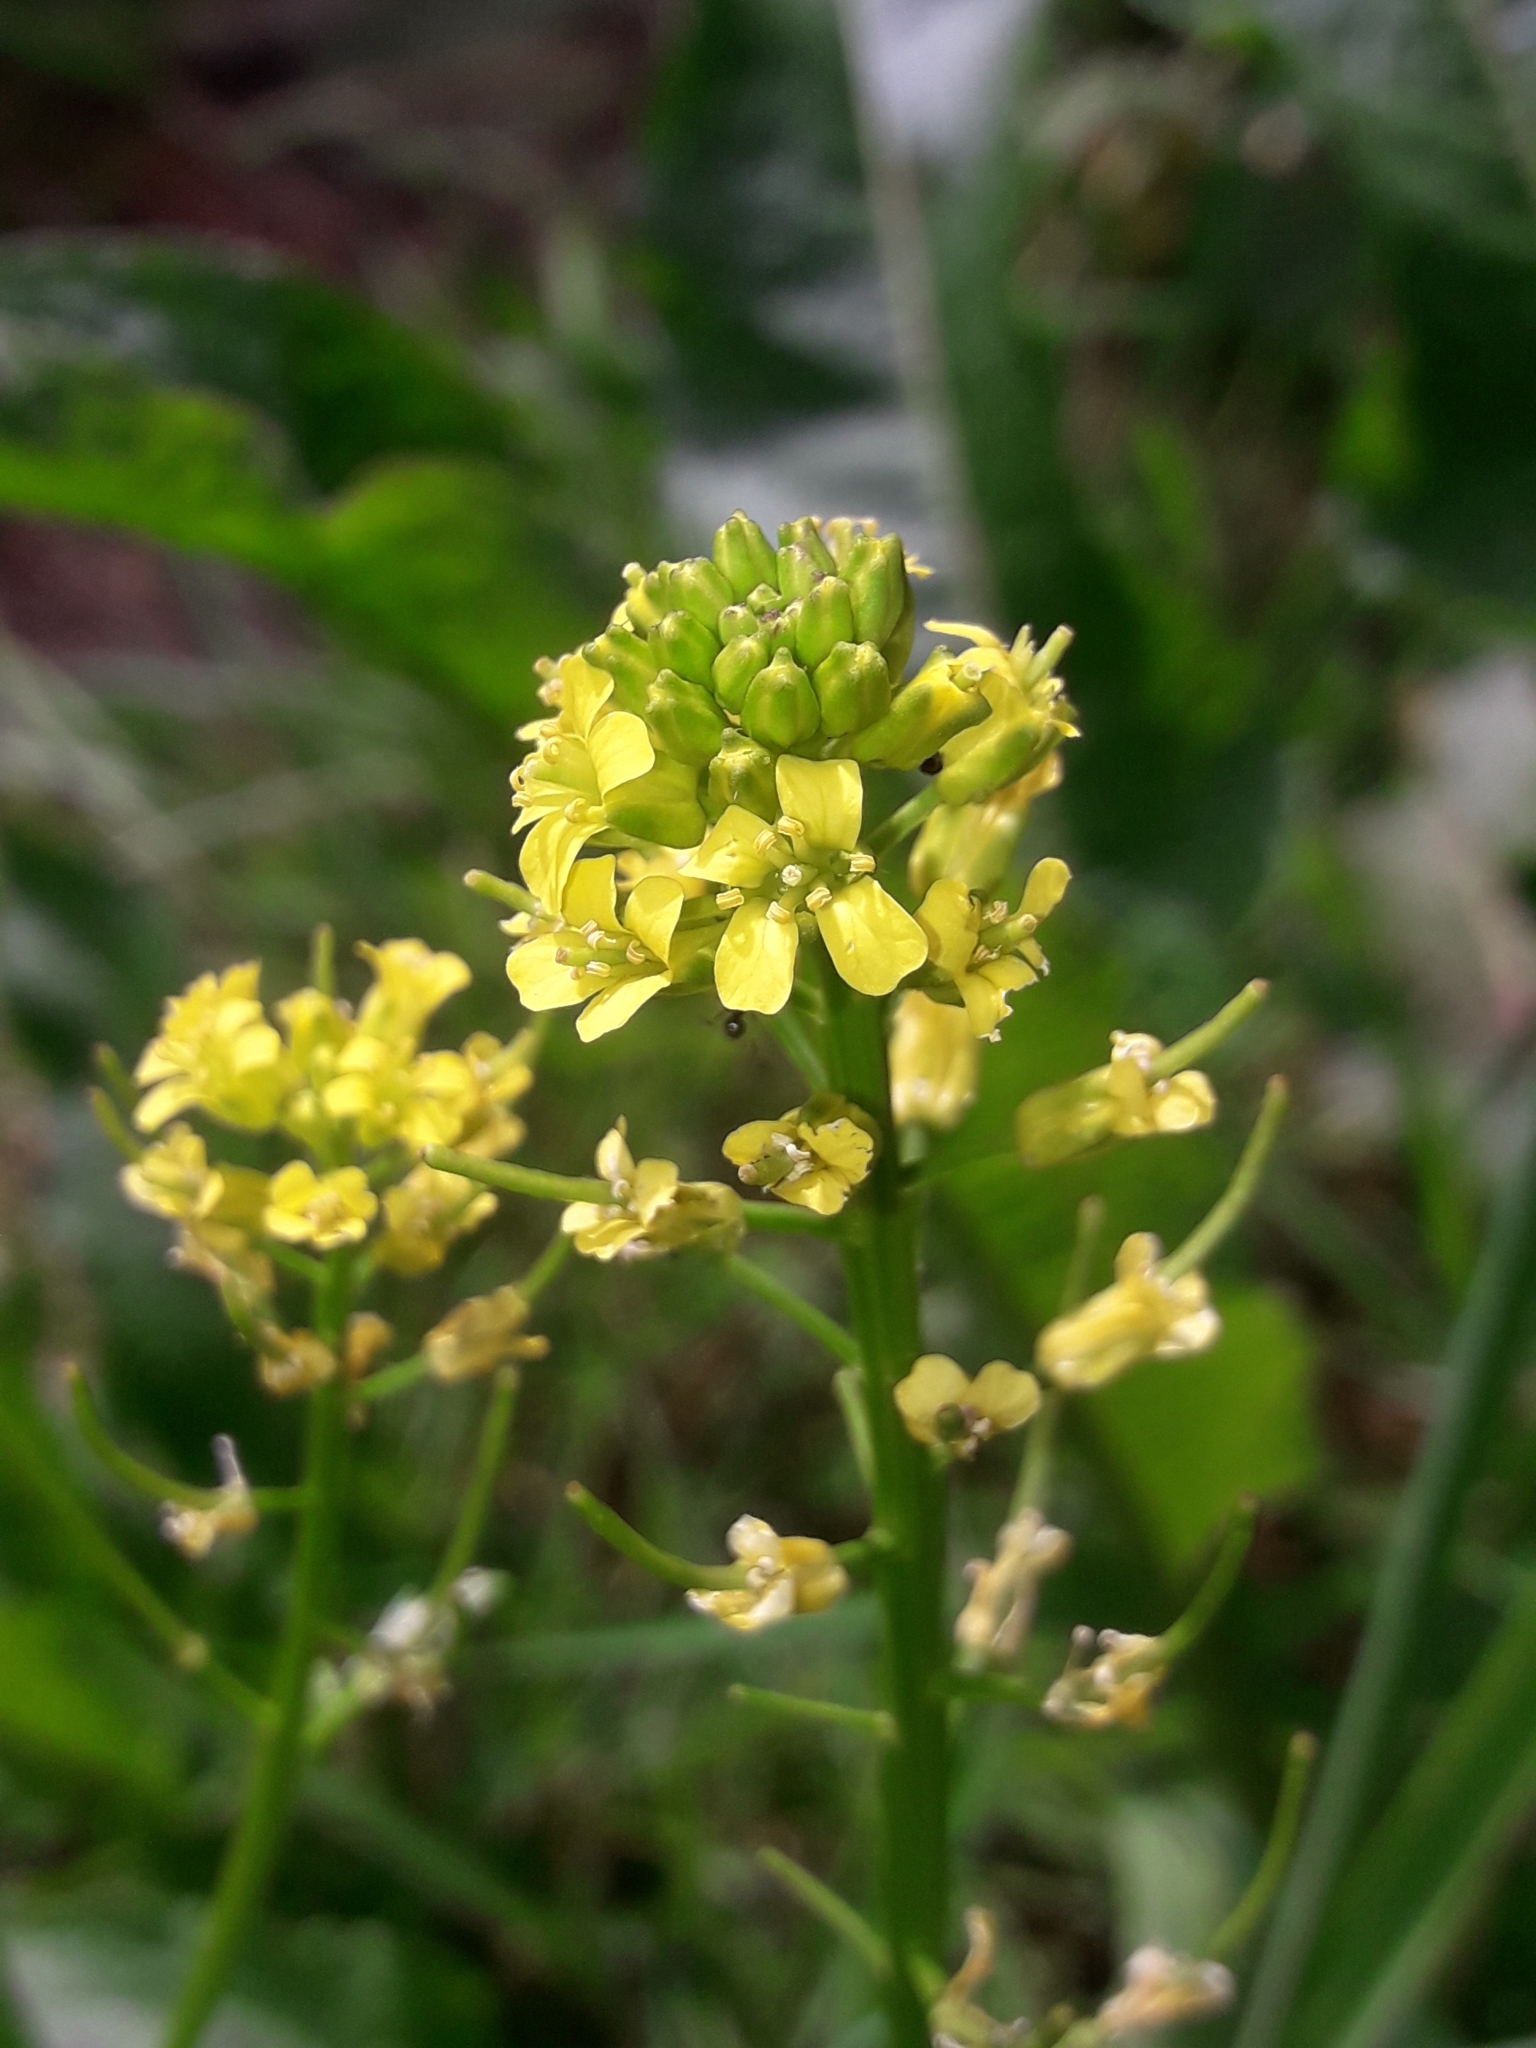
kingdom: Plantae
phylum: Tracheophyta
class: Magnoliopsida
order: Brassicales
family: Brassicaceae
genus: Barbarea
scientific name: Barbarea verna
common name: American cress
